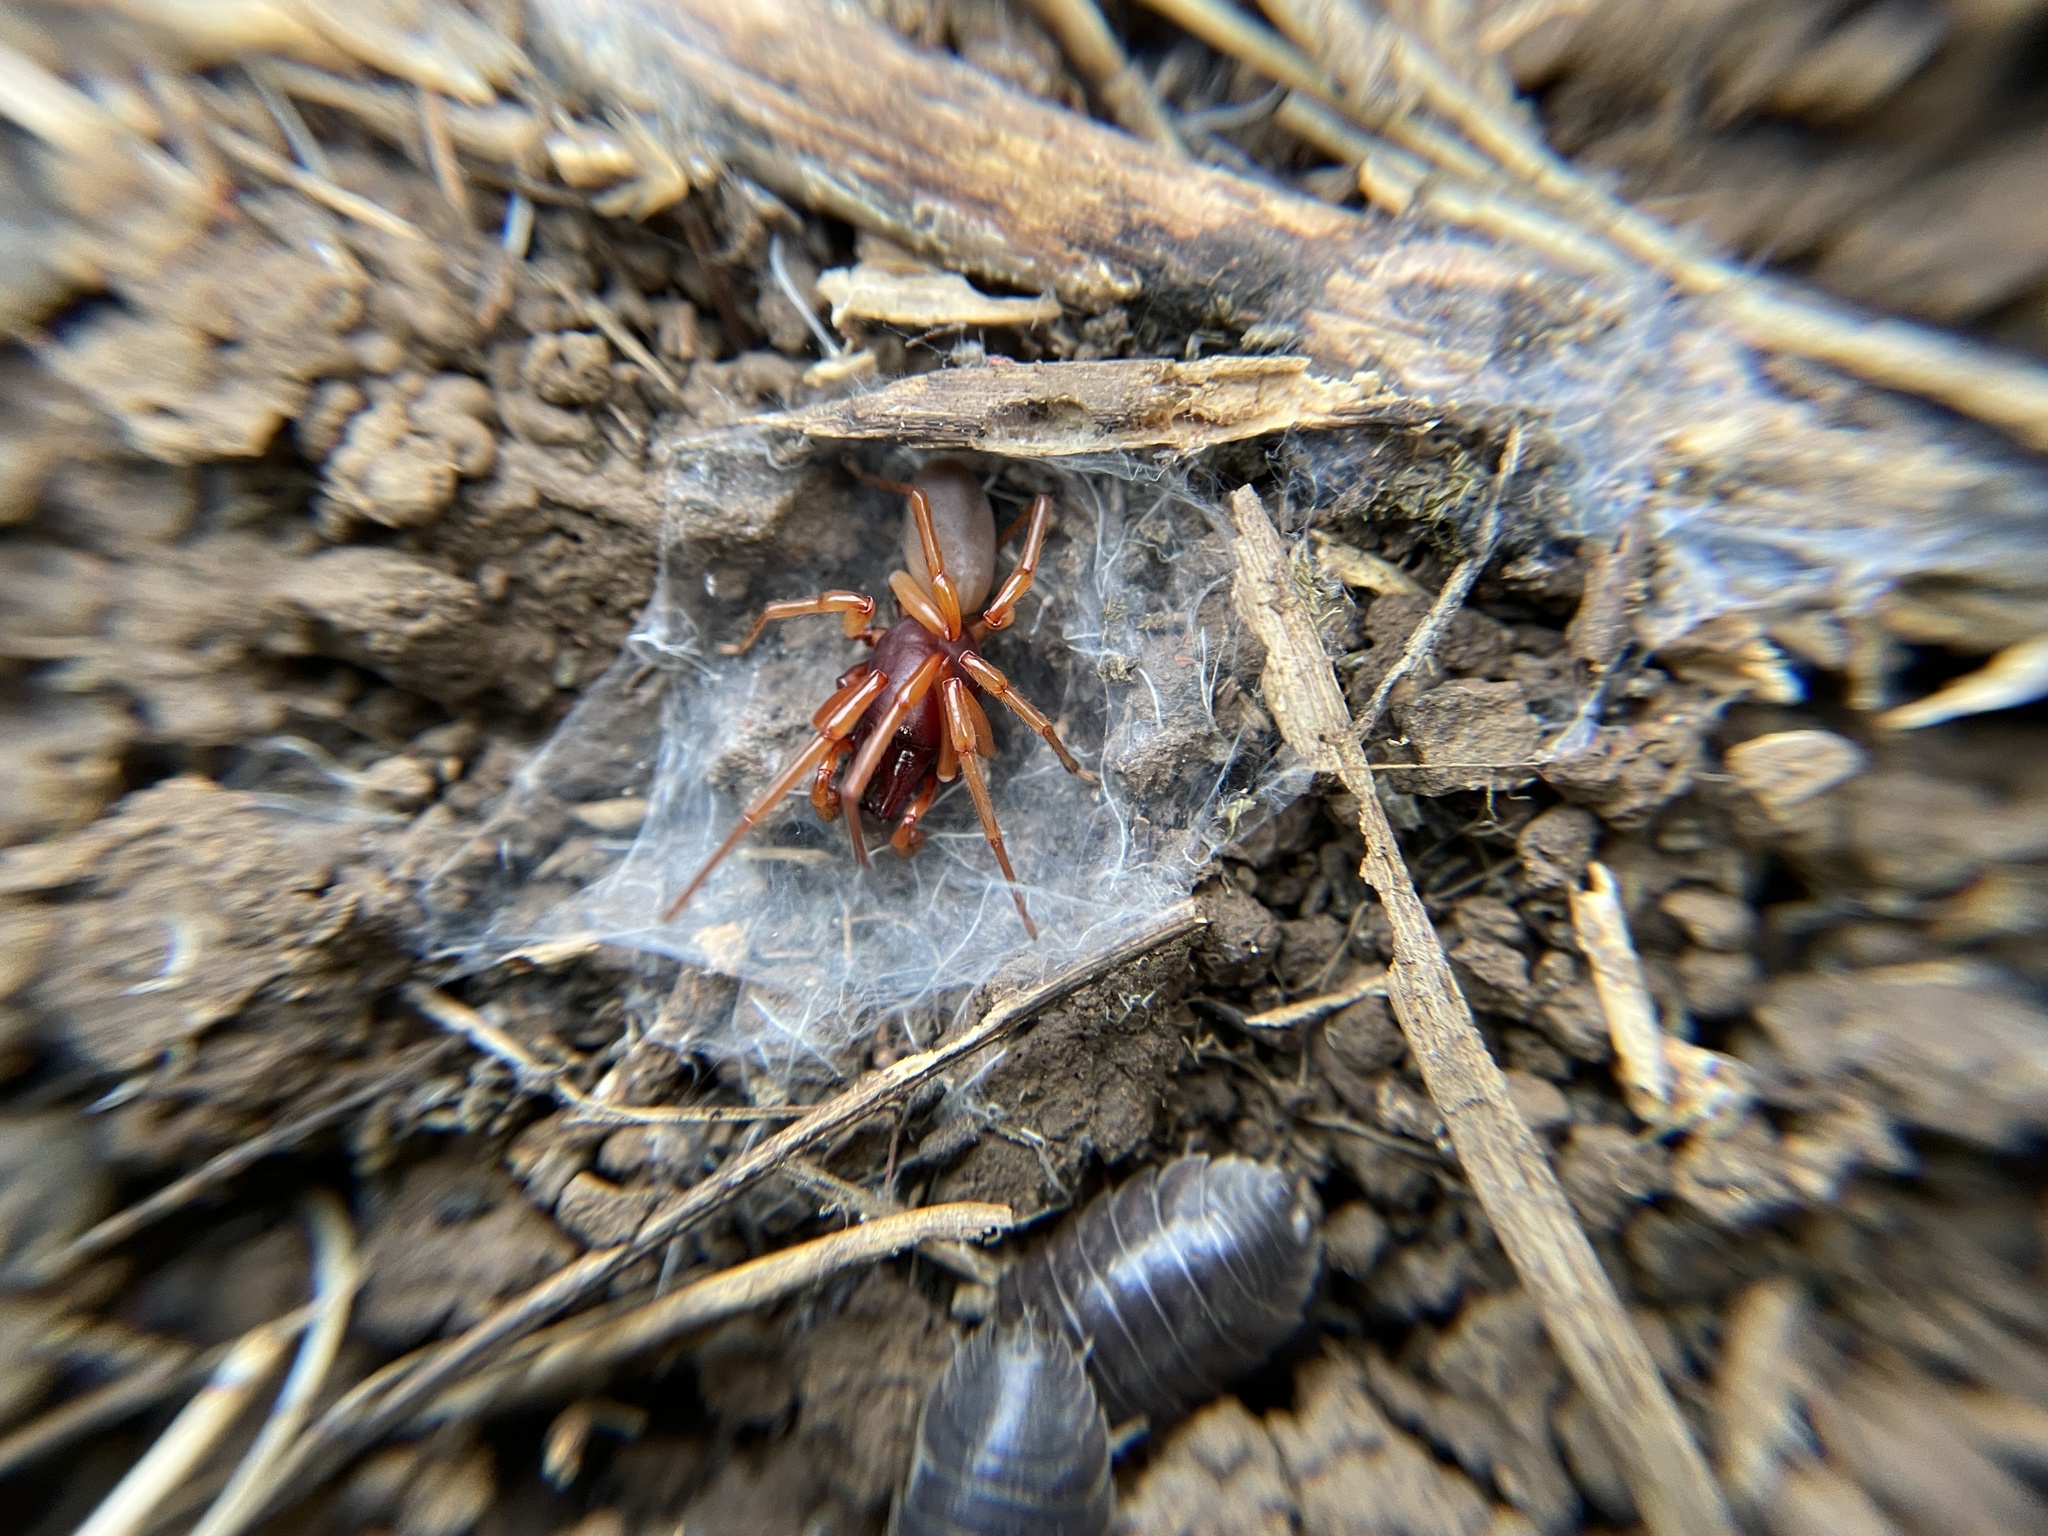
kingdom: Animalia
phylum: Arthropoda
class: Arachnida
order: Araneae
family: Dysderidae
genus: Dysdera
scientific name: Dysdera crocata
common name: Woodlouse spider
